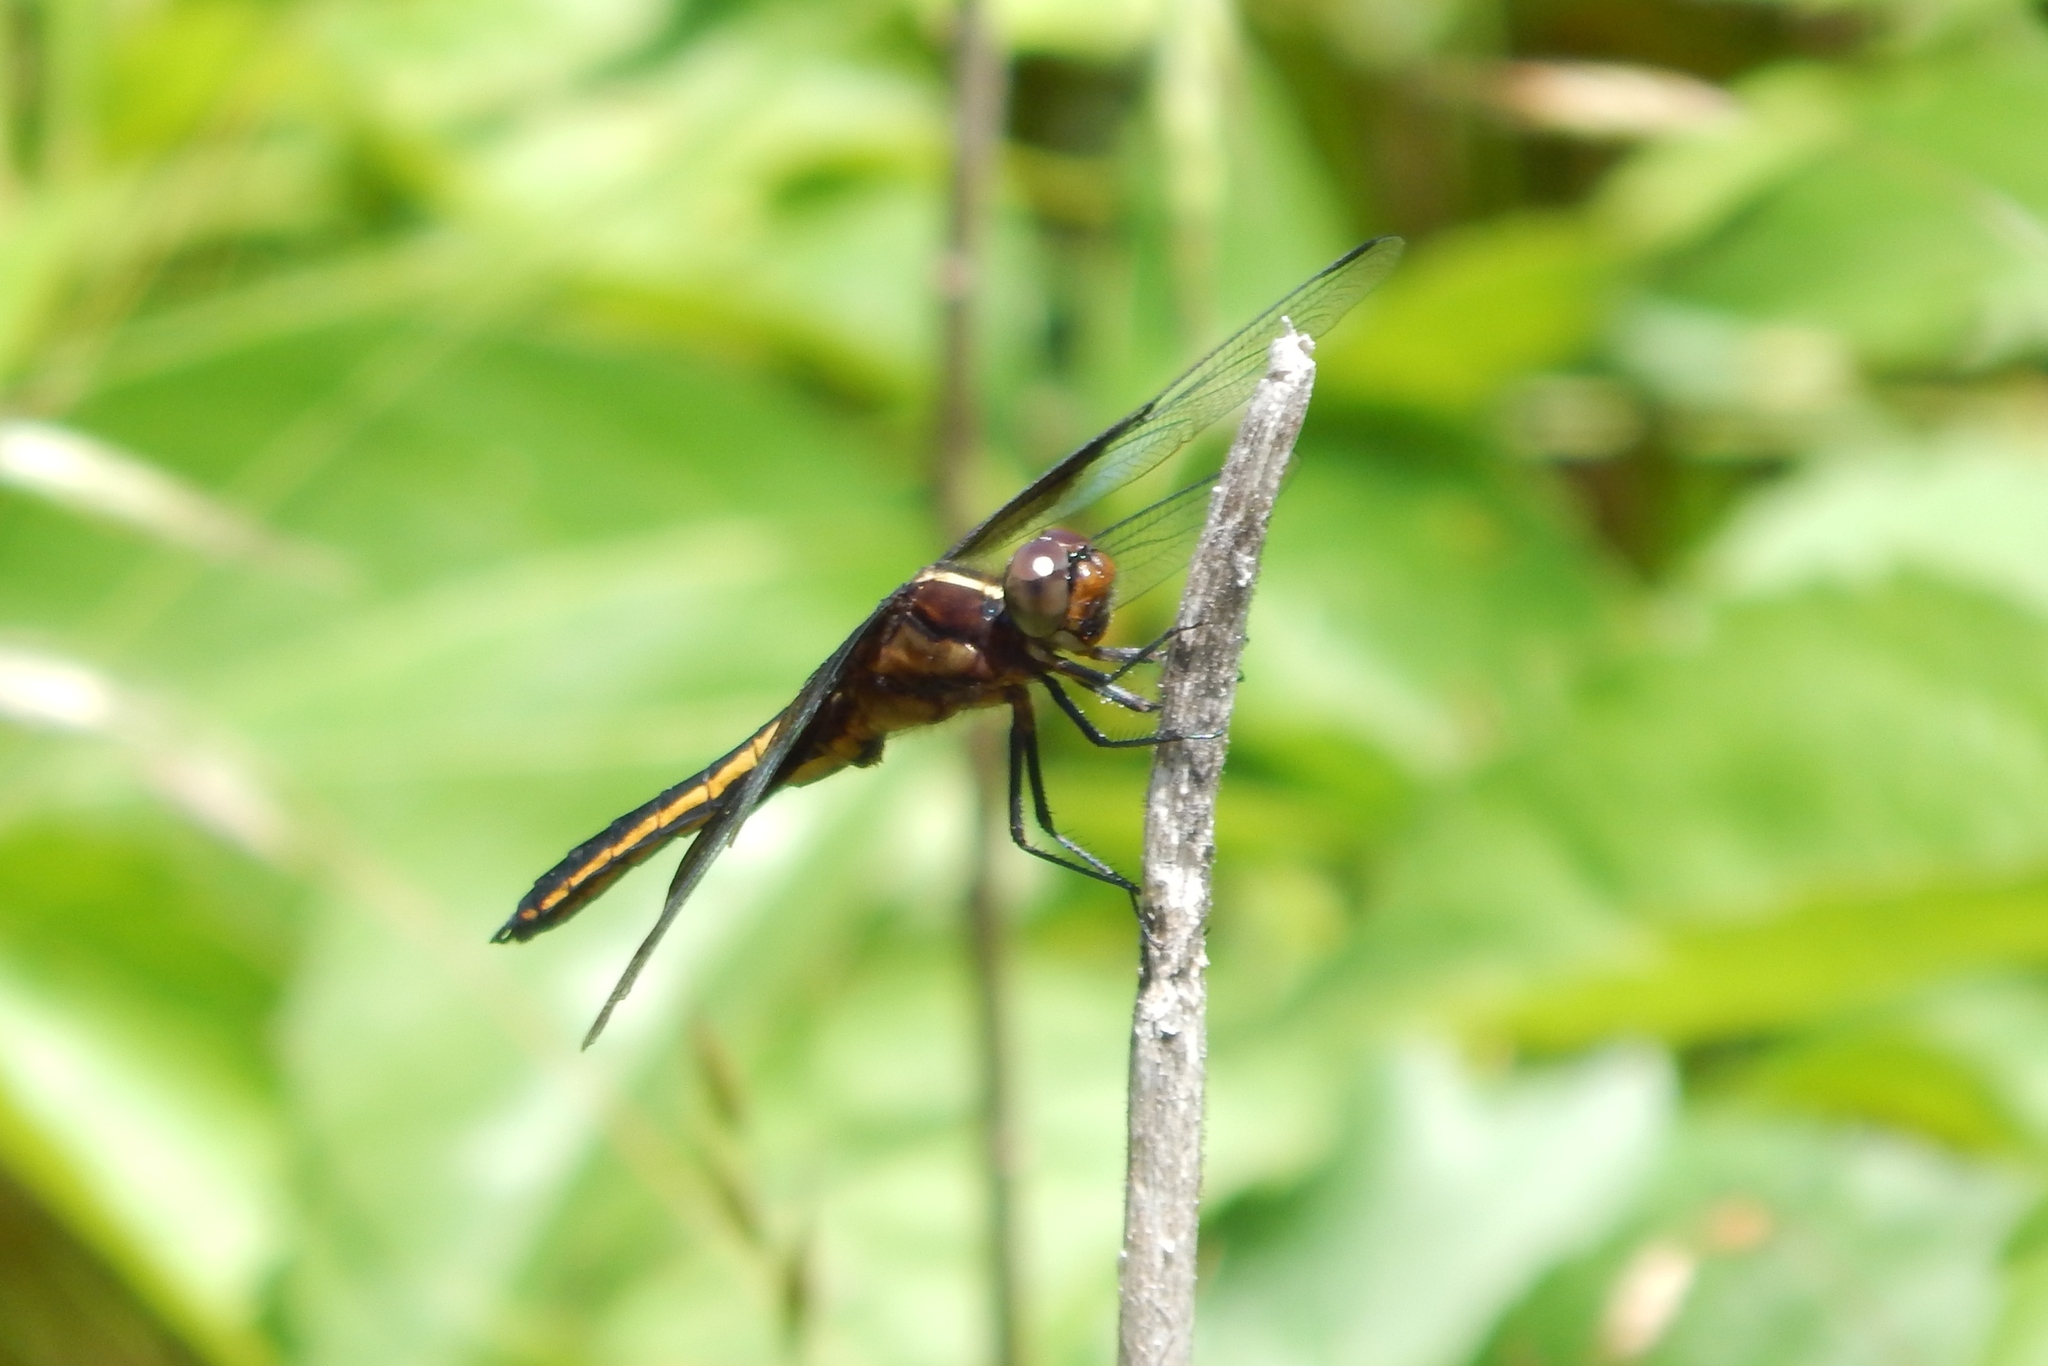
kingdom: Animalia
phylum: Arthropoda
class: Insecta
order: Odonata
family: Libellulidae
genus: Libellula
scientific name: Libellula luctuosa
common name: Widow skimmer
